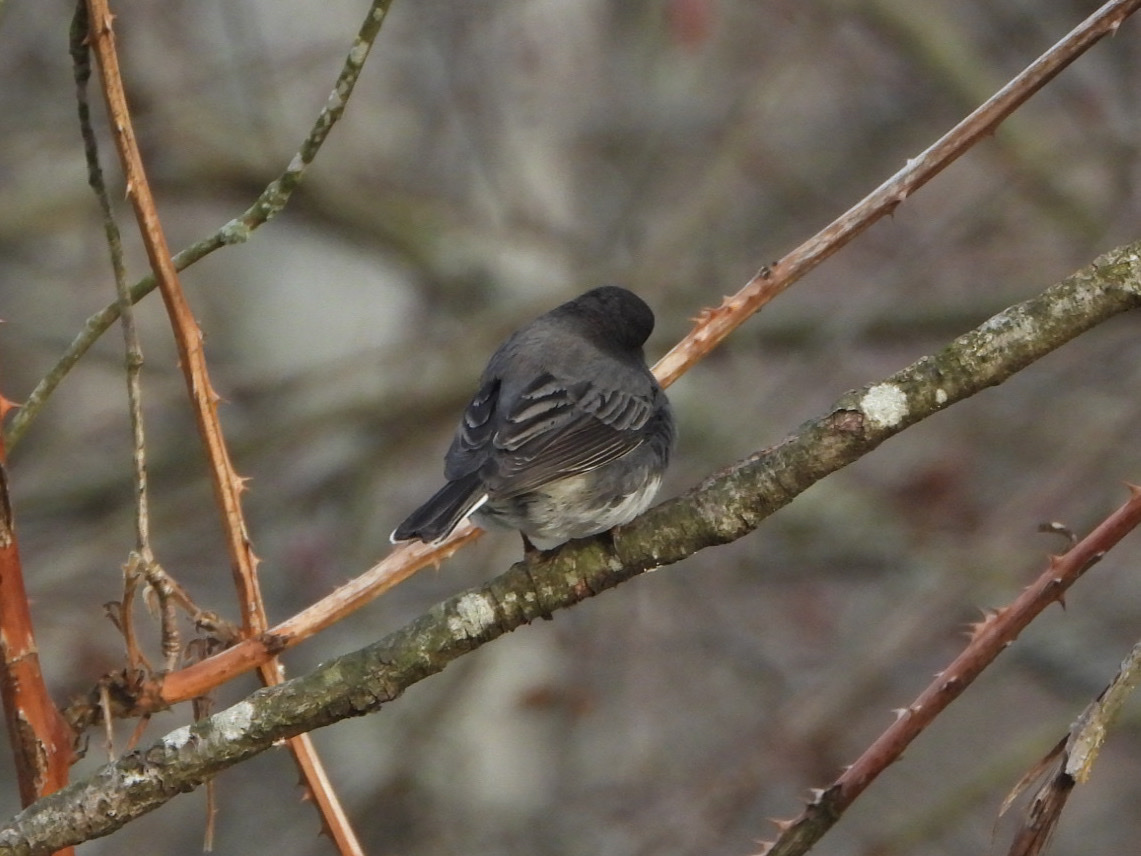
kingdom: Animalia
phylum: Chordata
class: Aves
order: Passeriformes
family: Passerellidae
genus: Junco
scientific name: Junco hyemalis
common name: Dark-eyed junco
